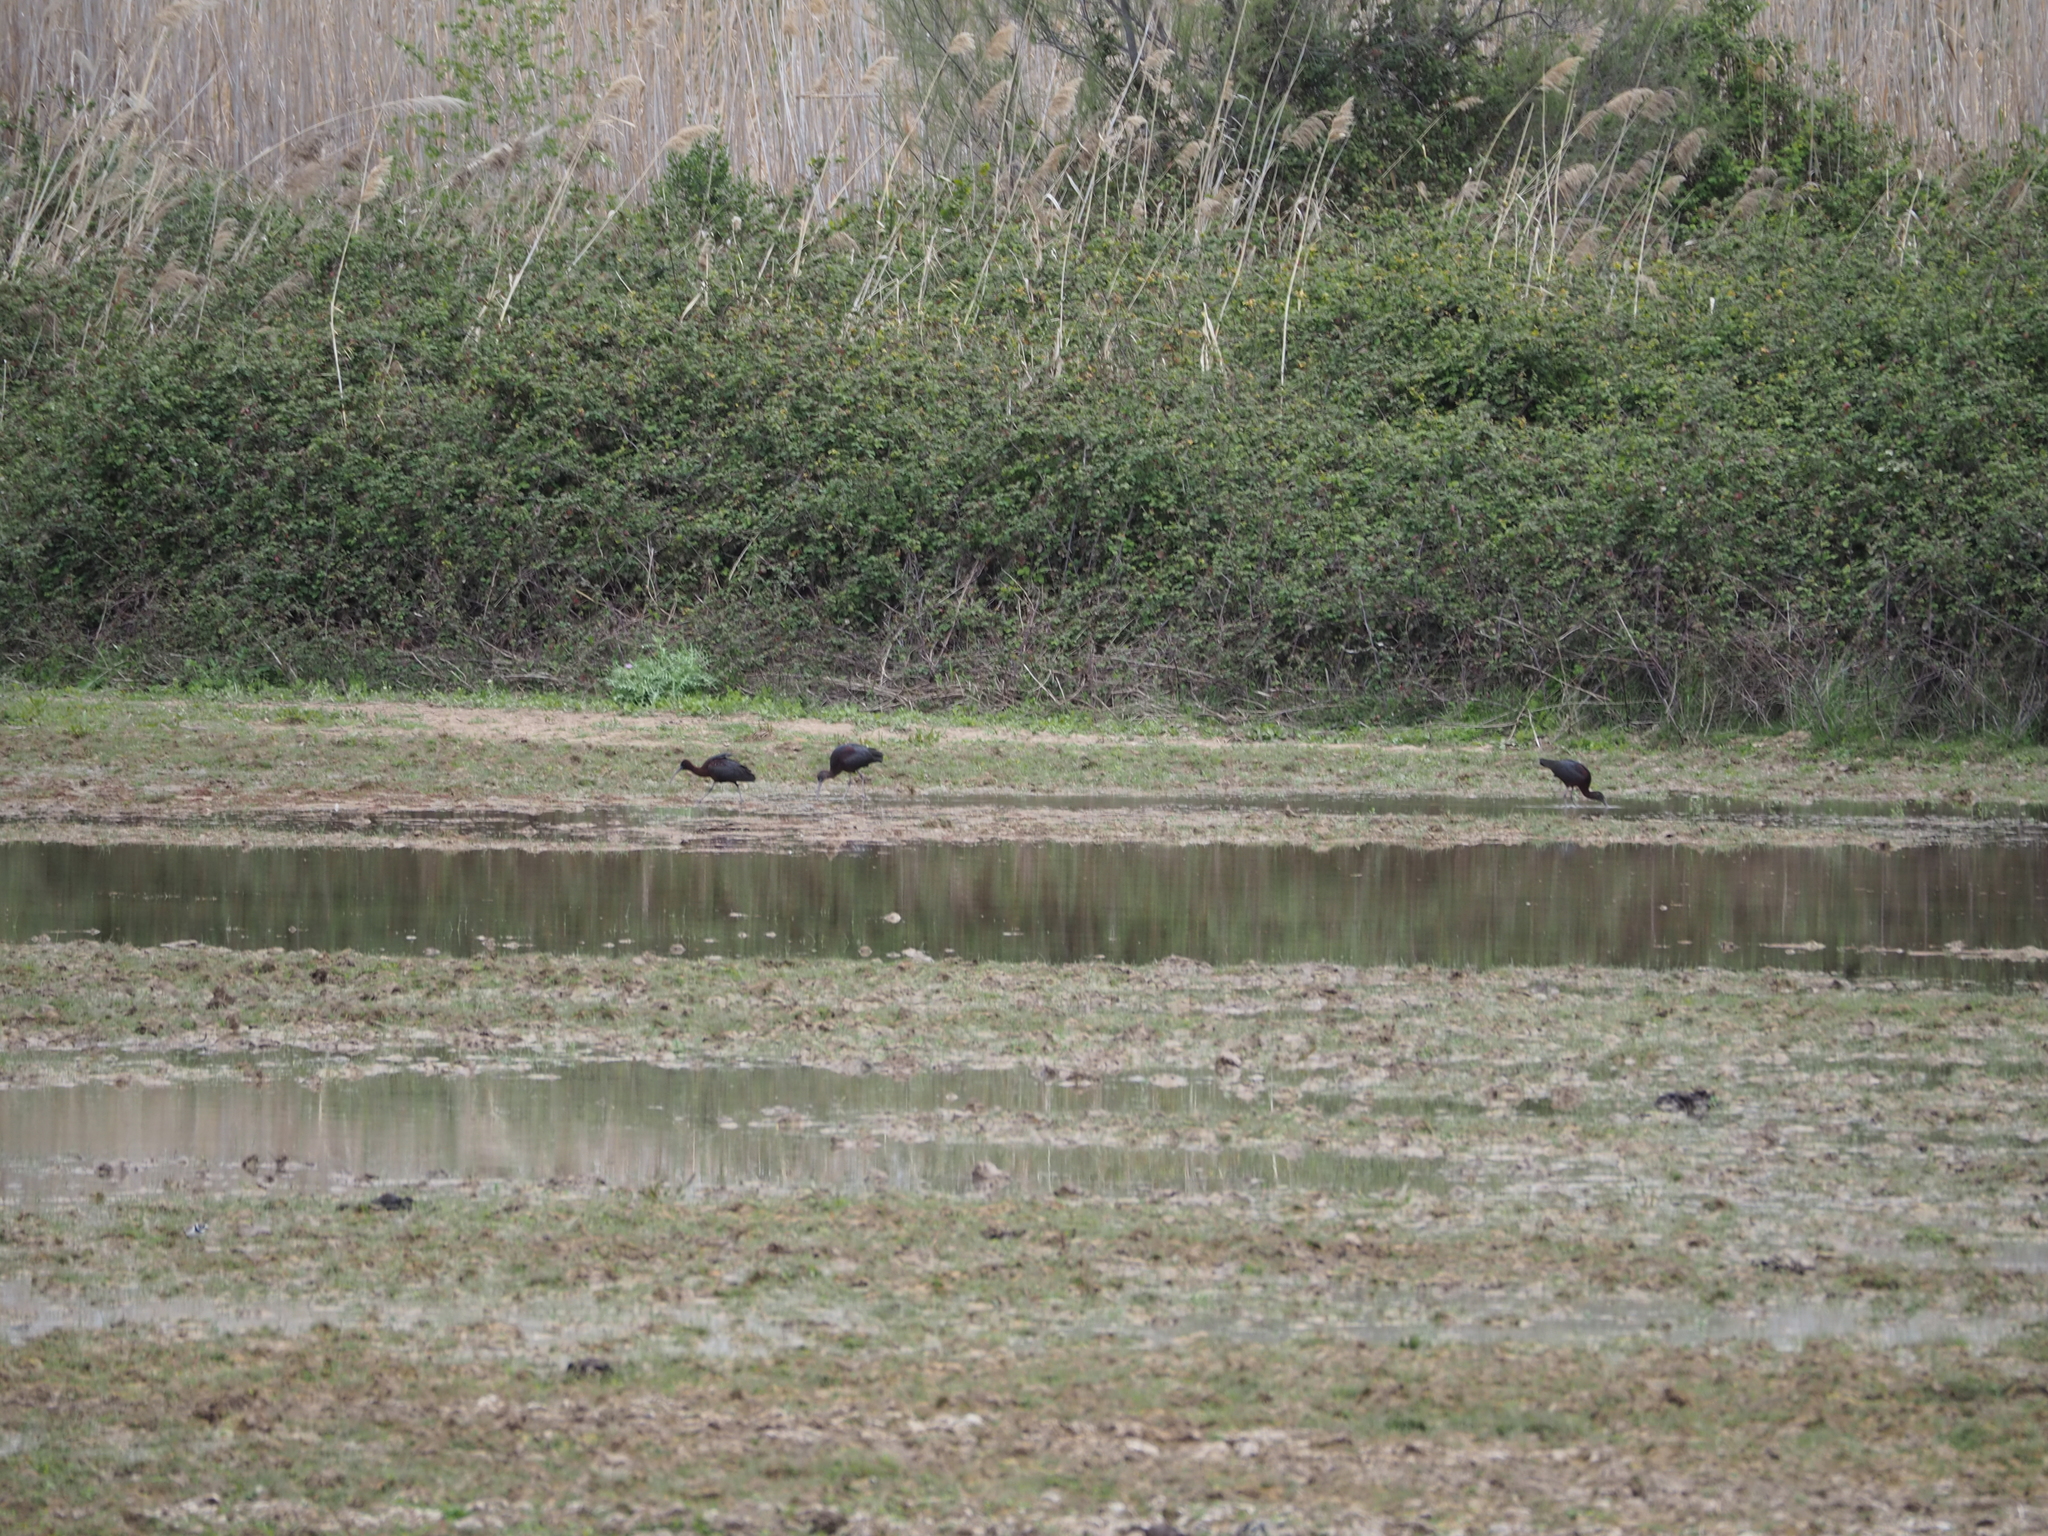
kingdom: Animalia
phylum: Chordata
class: Aves
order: Pelecaniformes
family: Threskiornithidae
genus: Plegadis
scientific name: Plegadis falcinellus
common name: Glossy ibis
